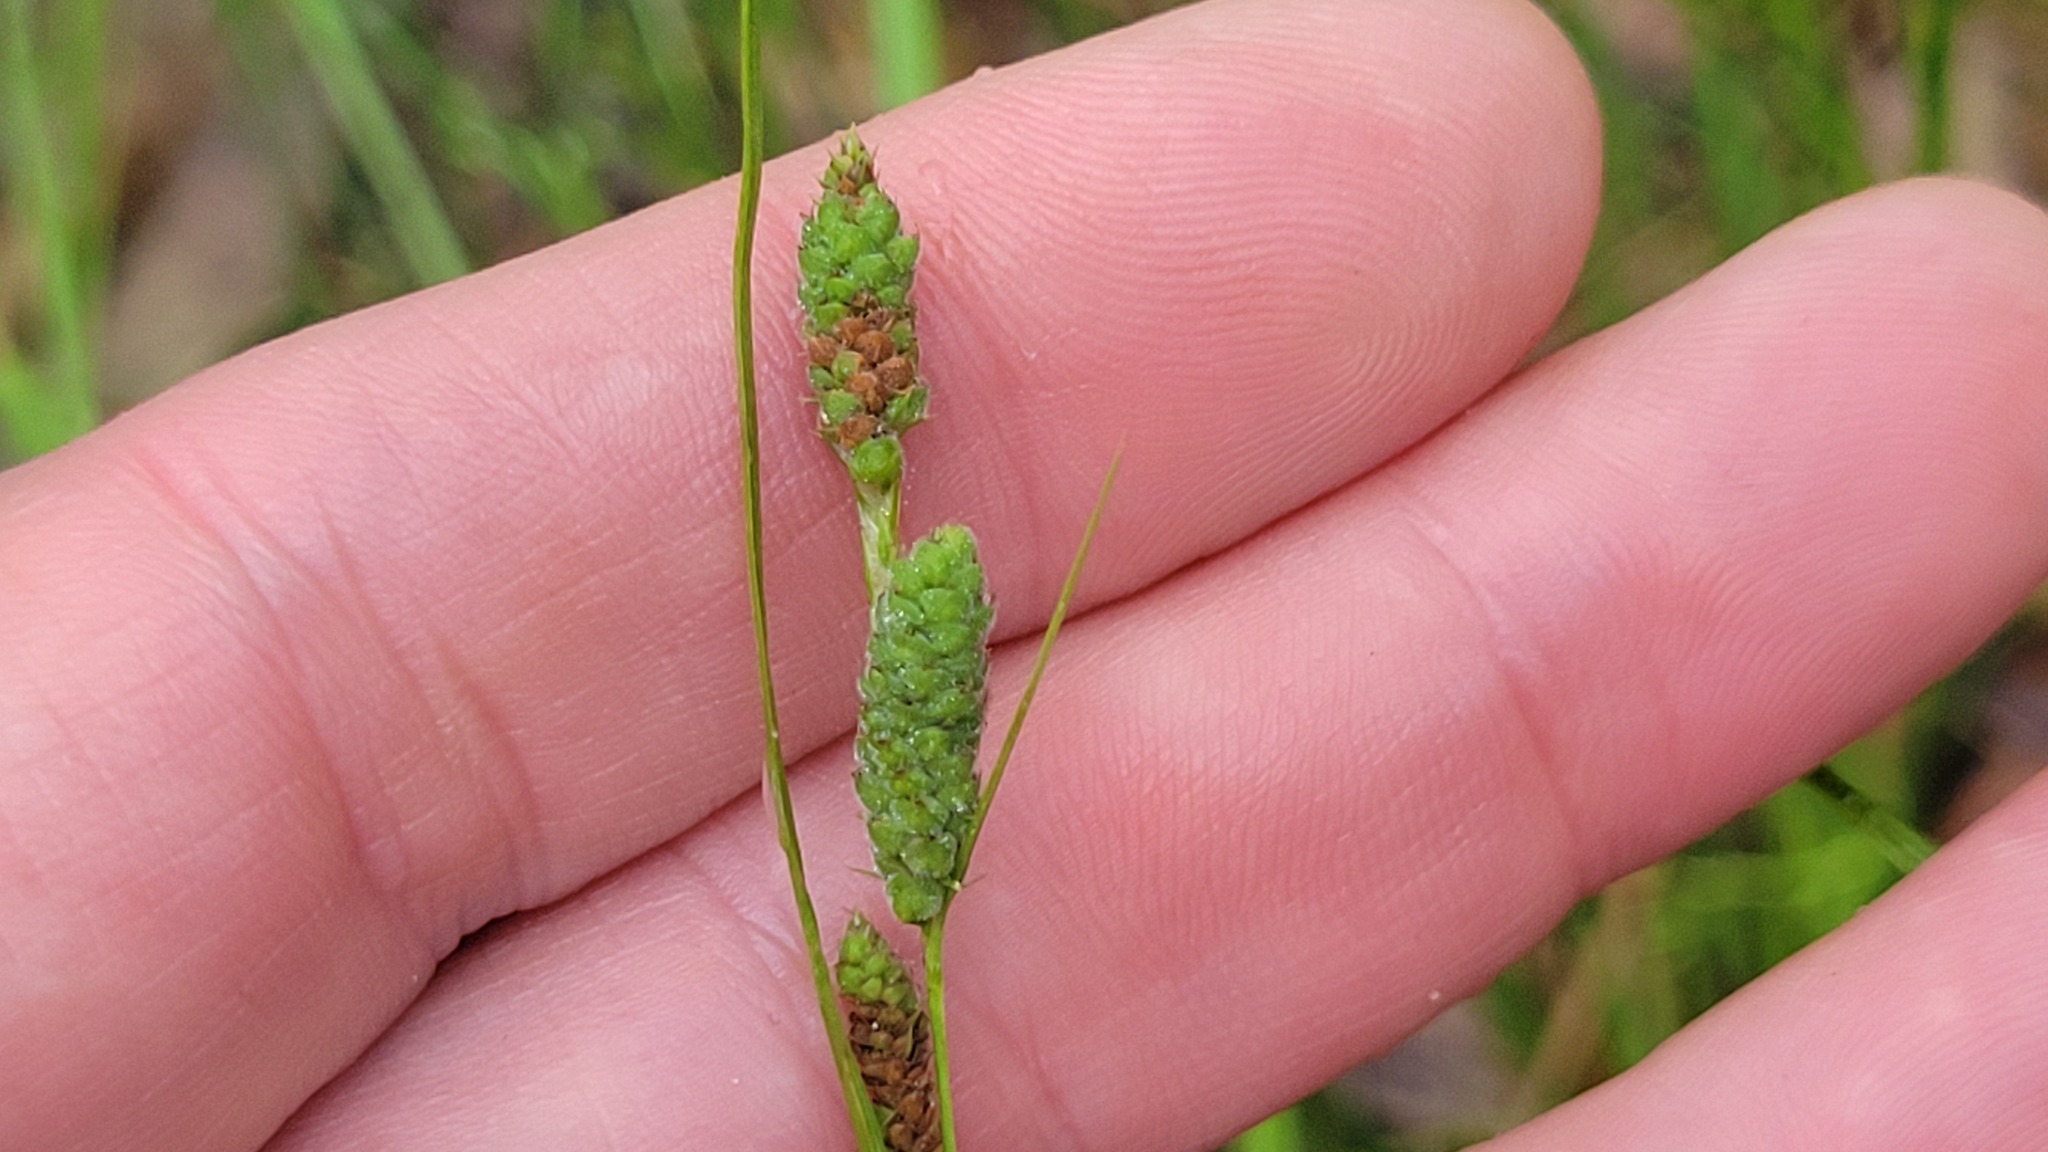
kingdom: Plantae
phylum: Tracheophyta
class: Liliopsida
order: Poales
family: Cyperaceae
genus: Carex
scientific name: Carex swanii
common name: Downy green sedge
